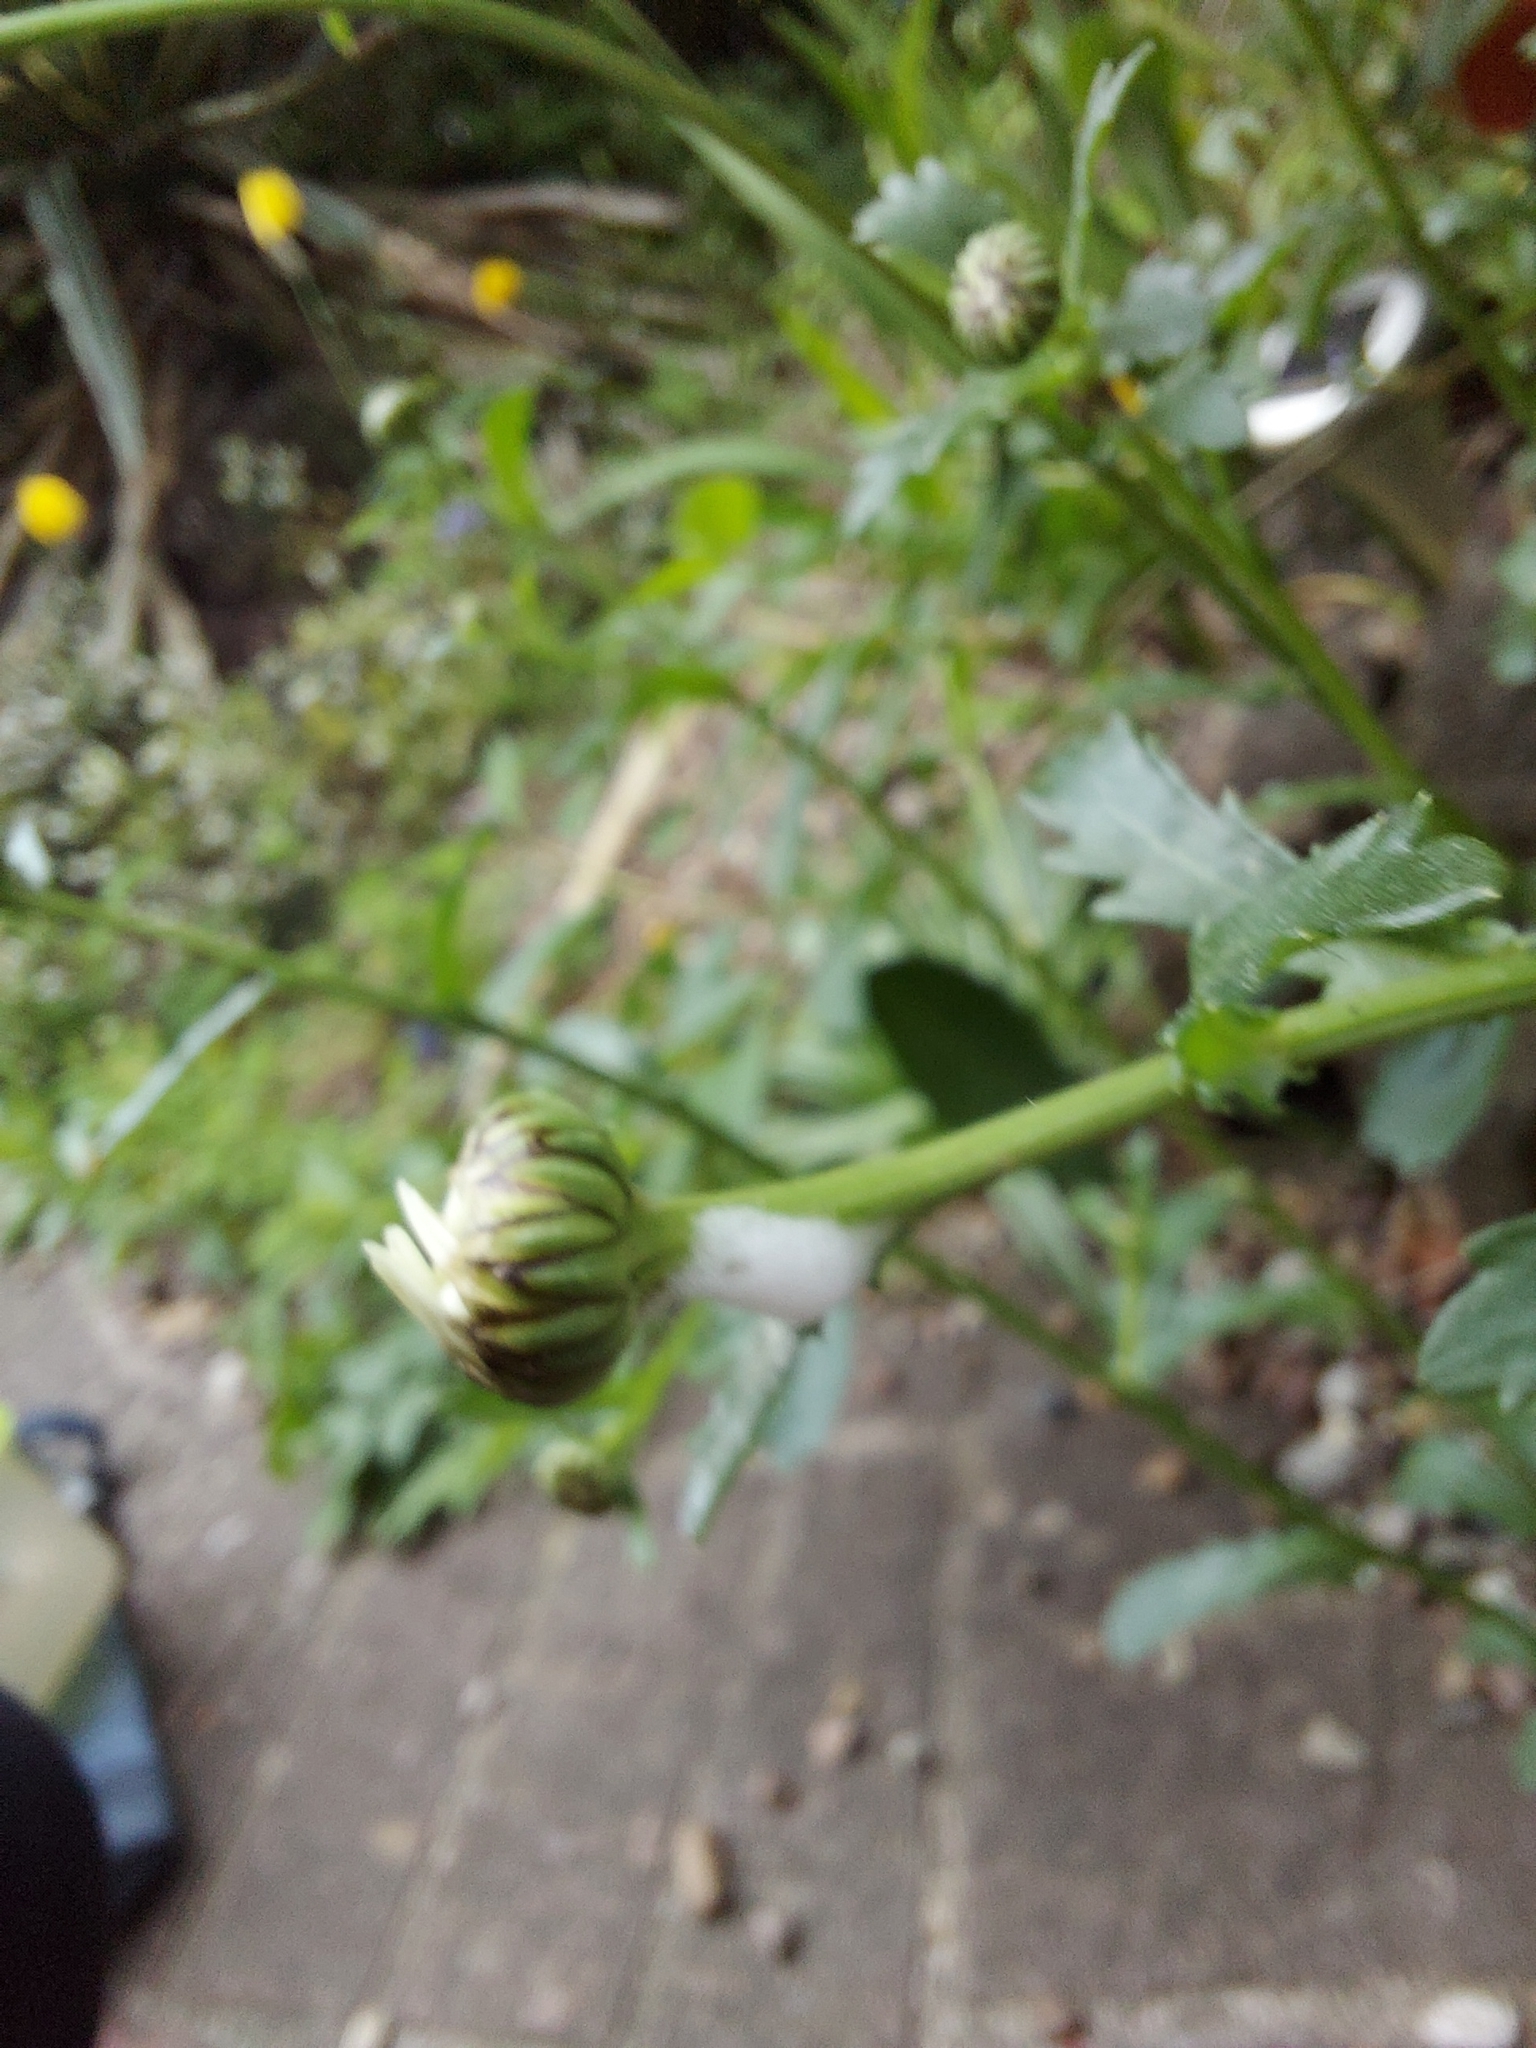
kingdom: Plantae
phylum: Tracheophyta
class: Magnoliopsida
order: Asterales
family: Asteraceae
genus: Leucanthemum
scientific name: Leucanthemum vulgare
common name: Oxeye daisy
